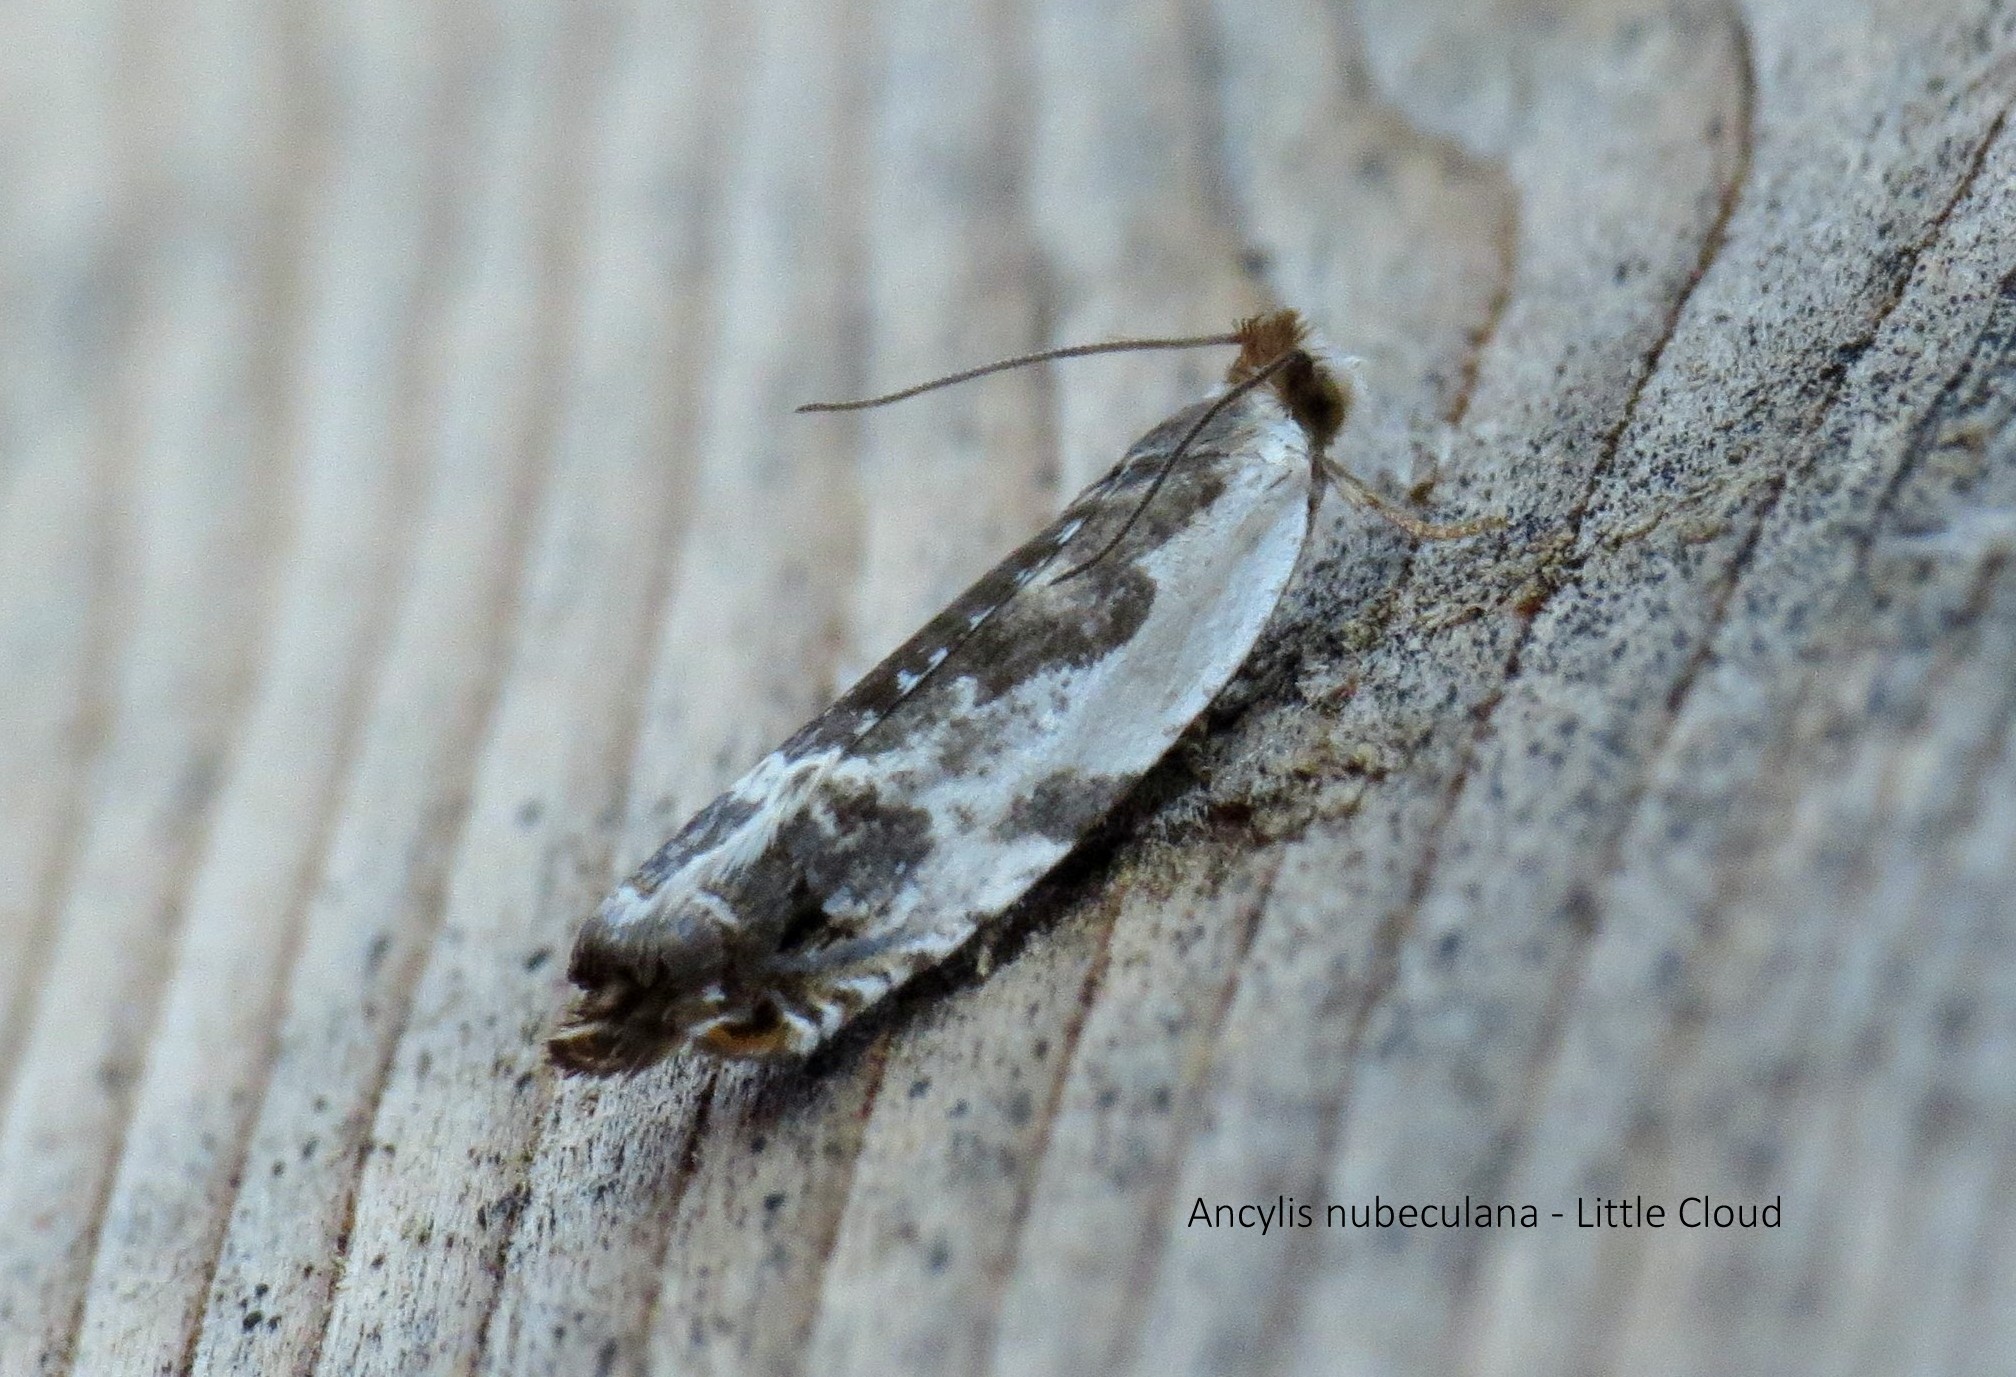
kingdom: Animalia
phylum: Arthropoda
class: Insecta
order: Lepidoptera
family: Tortricidae
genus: Ancylis
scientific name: Ancylis nubeculana
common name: Little cloud ancylis moth
